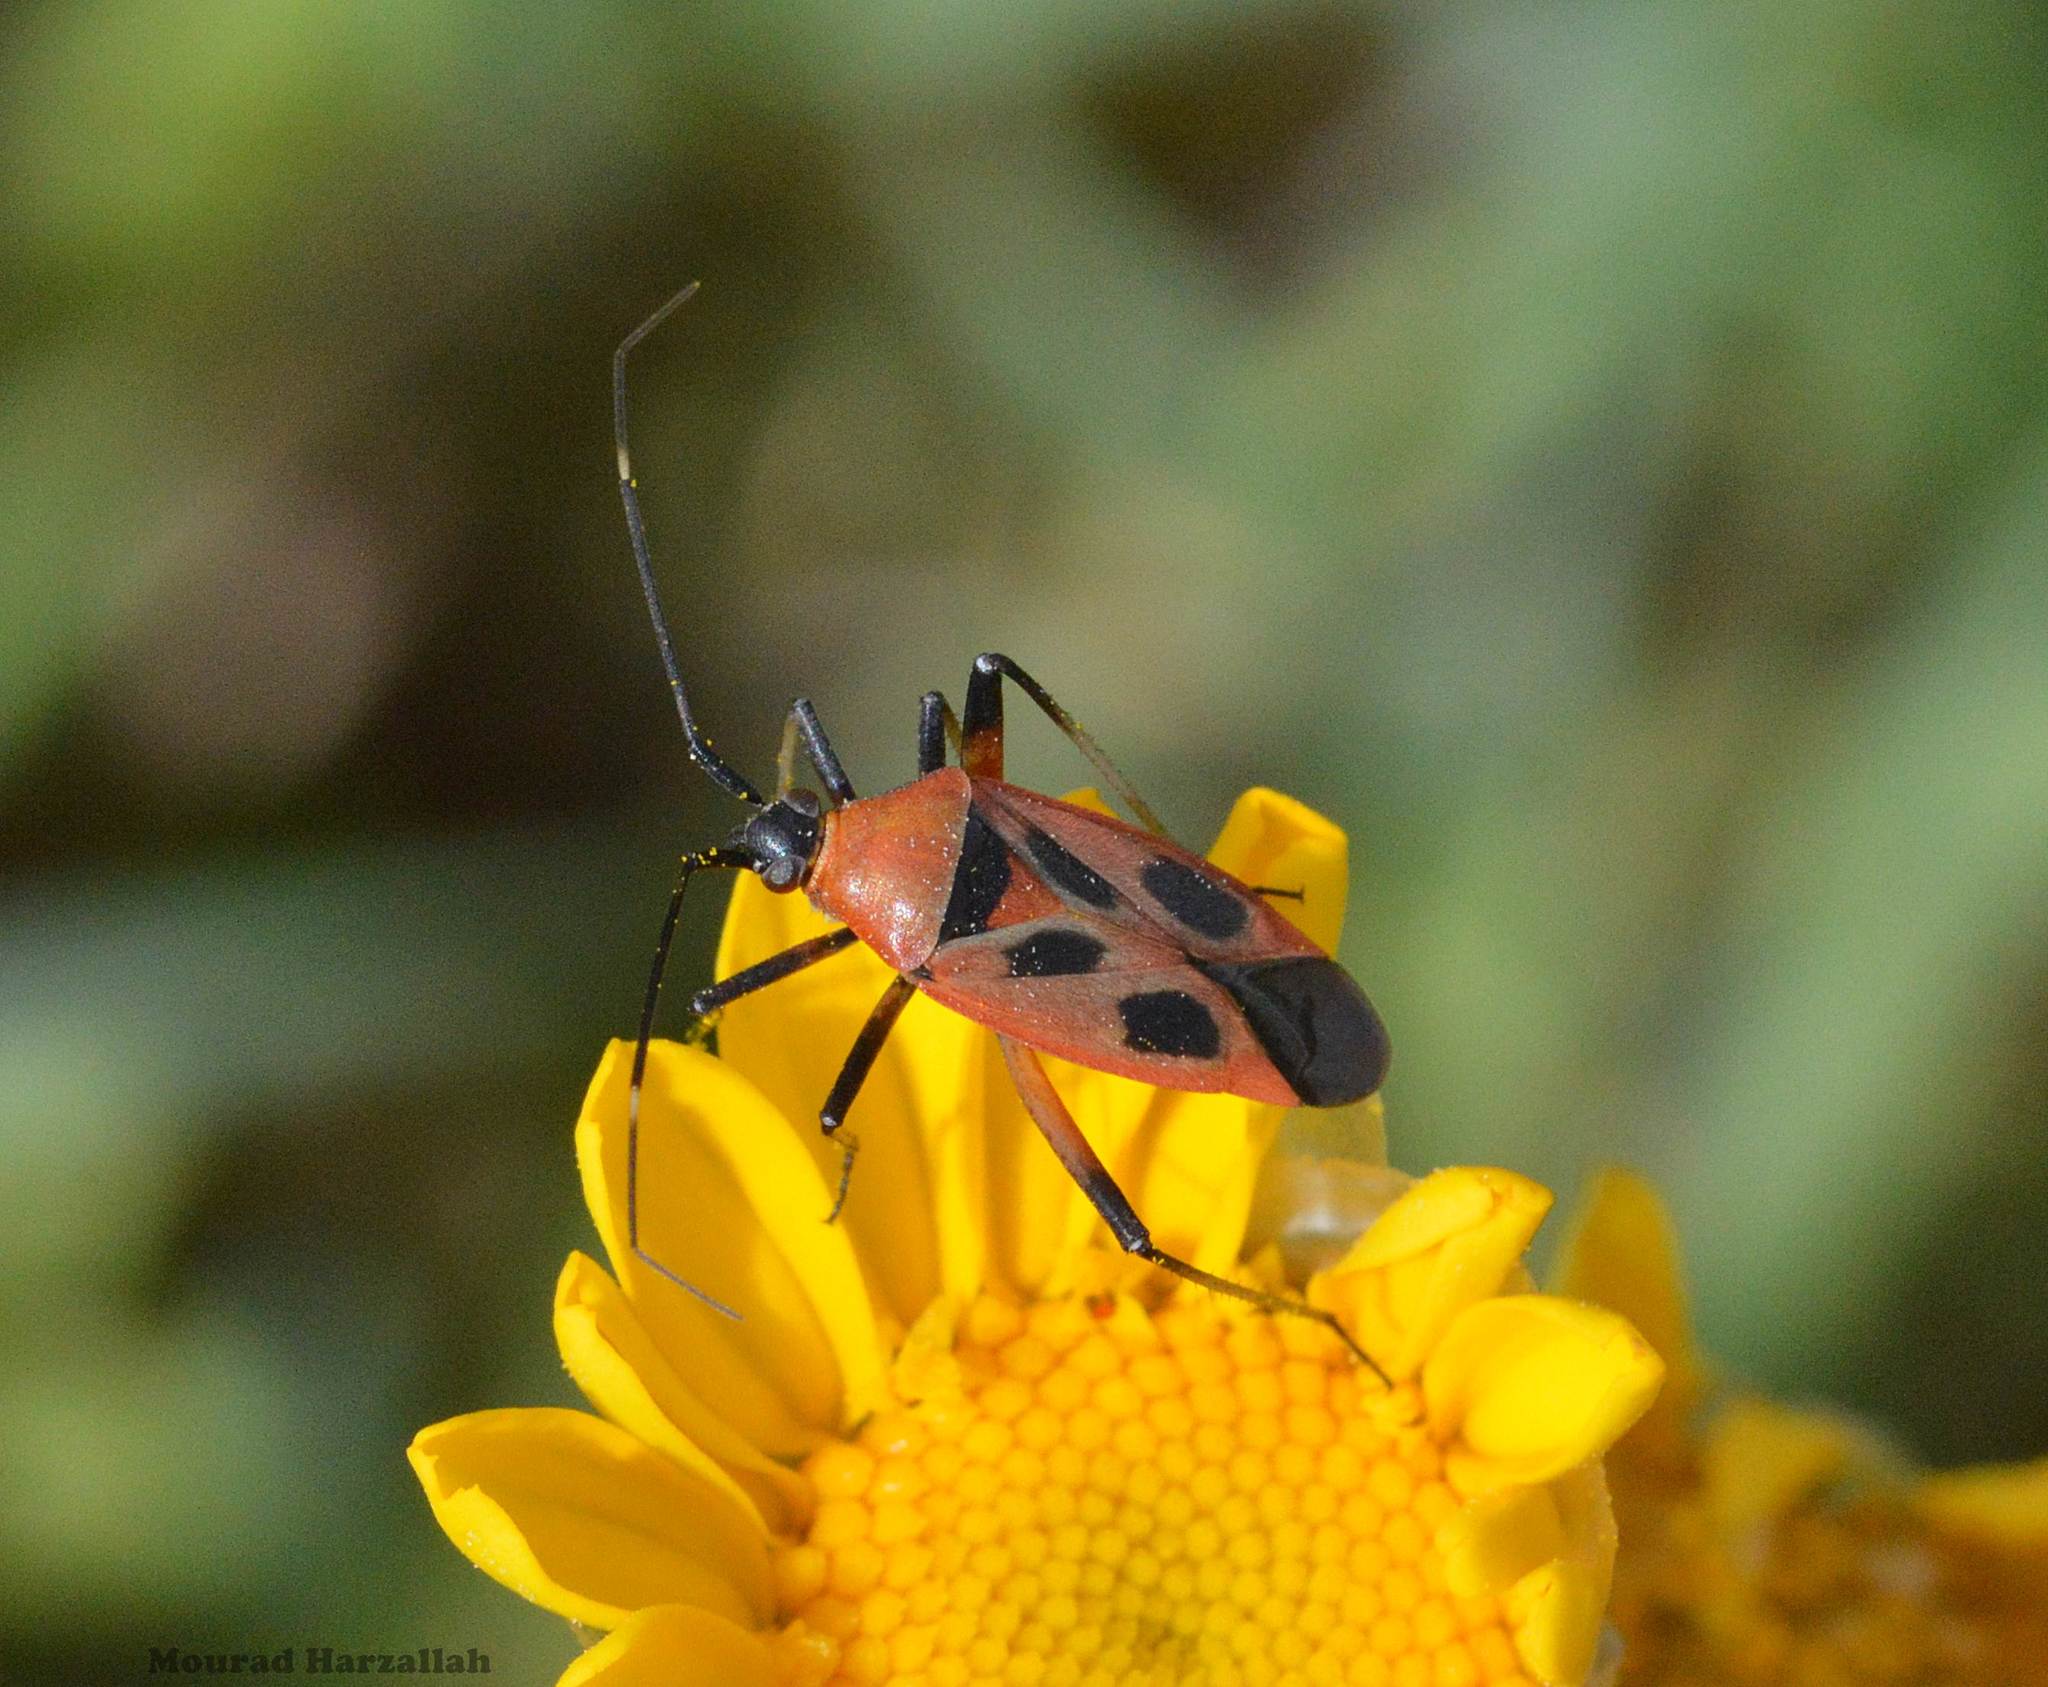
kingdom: Animalia
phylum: Arthropoda
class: Insecta
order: Hemiptera
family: Miridae
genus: Calocoris
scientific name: Calocoris nemoralis
